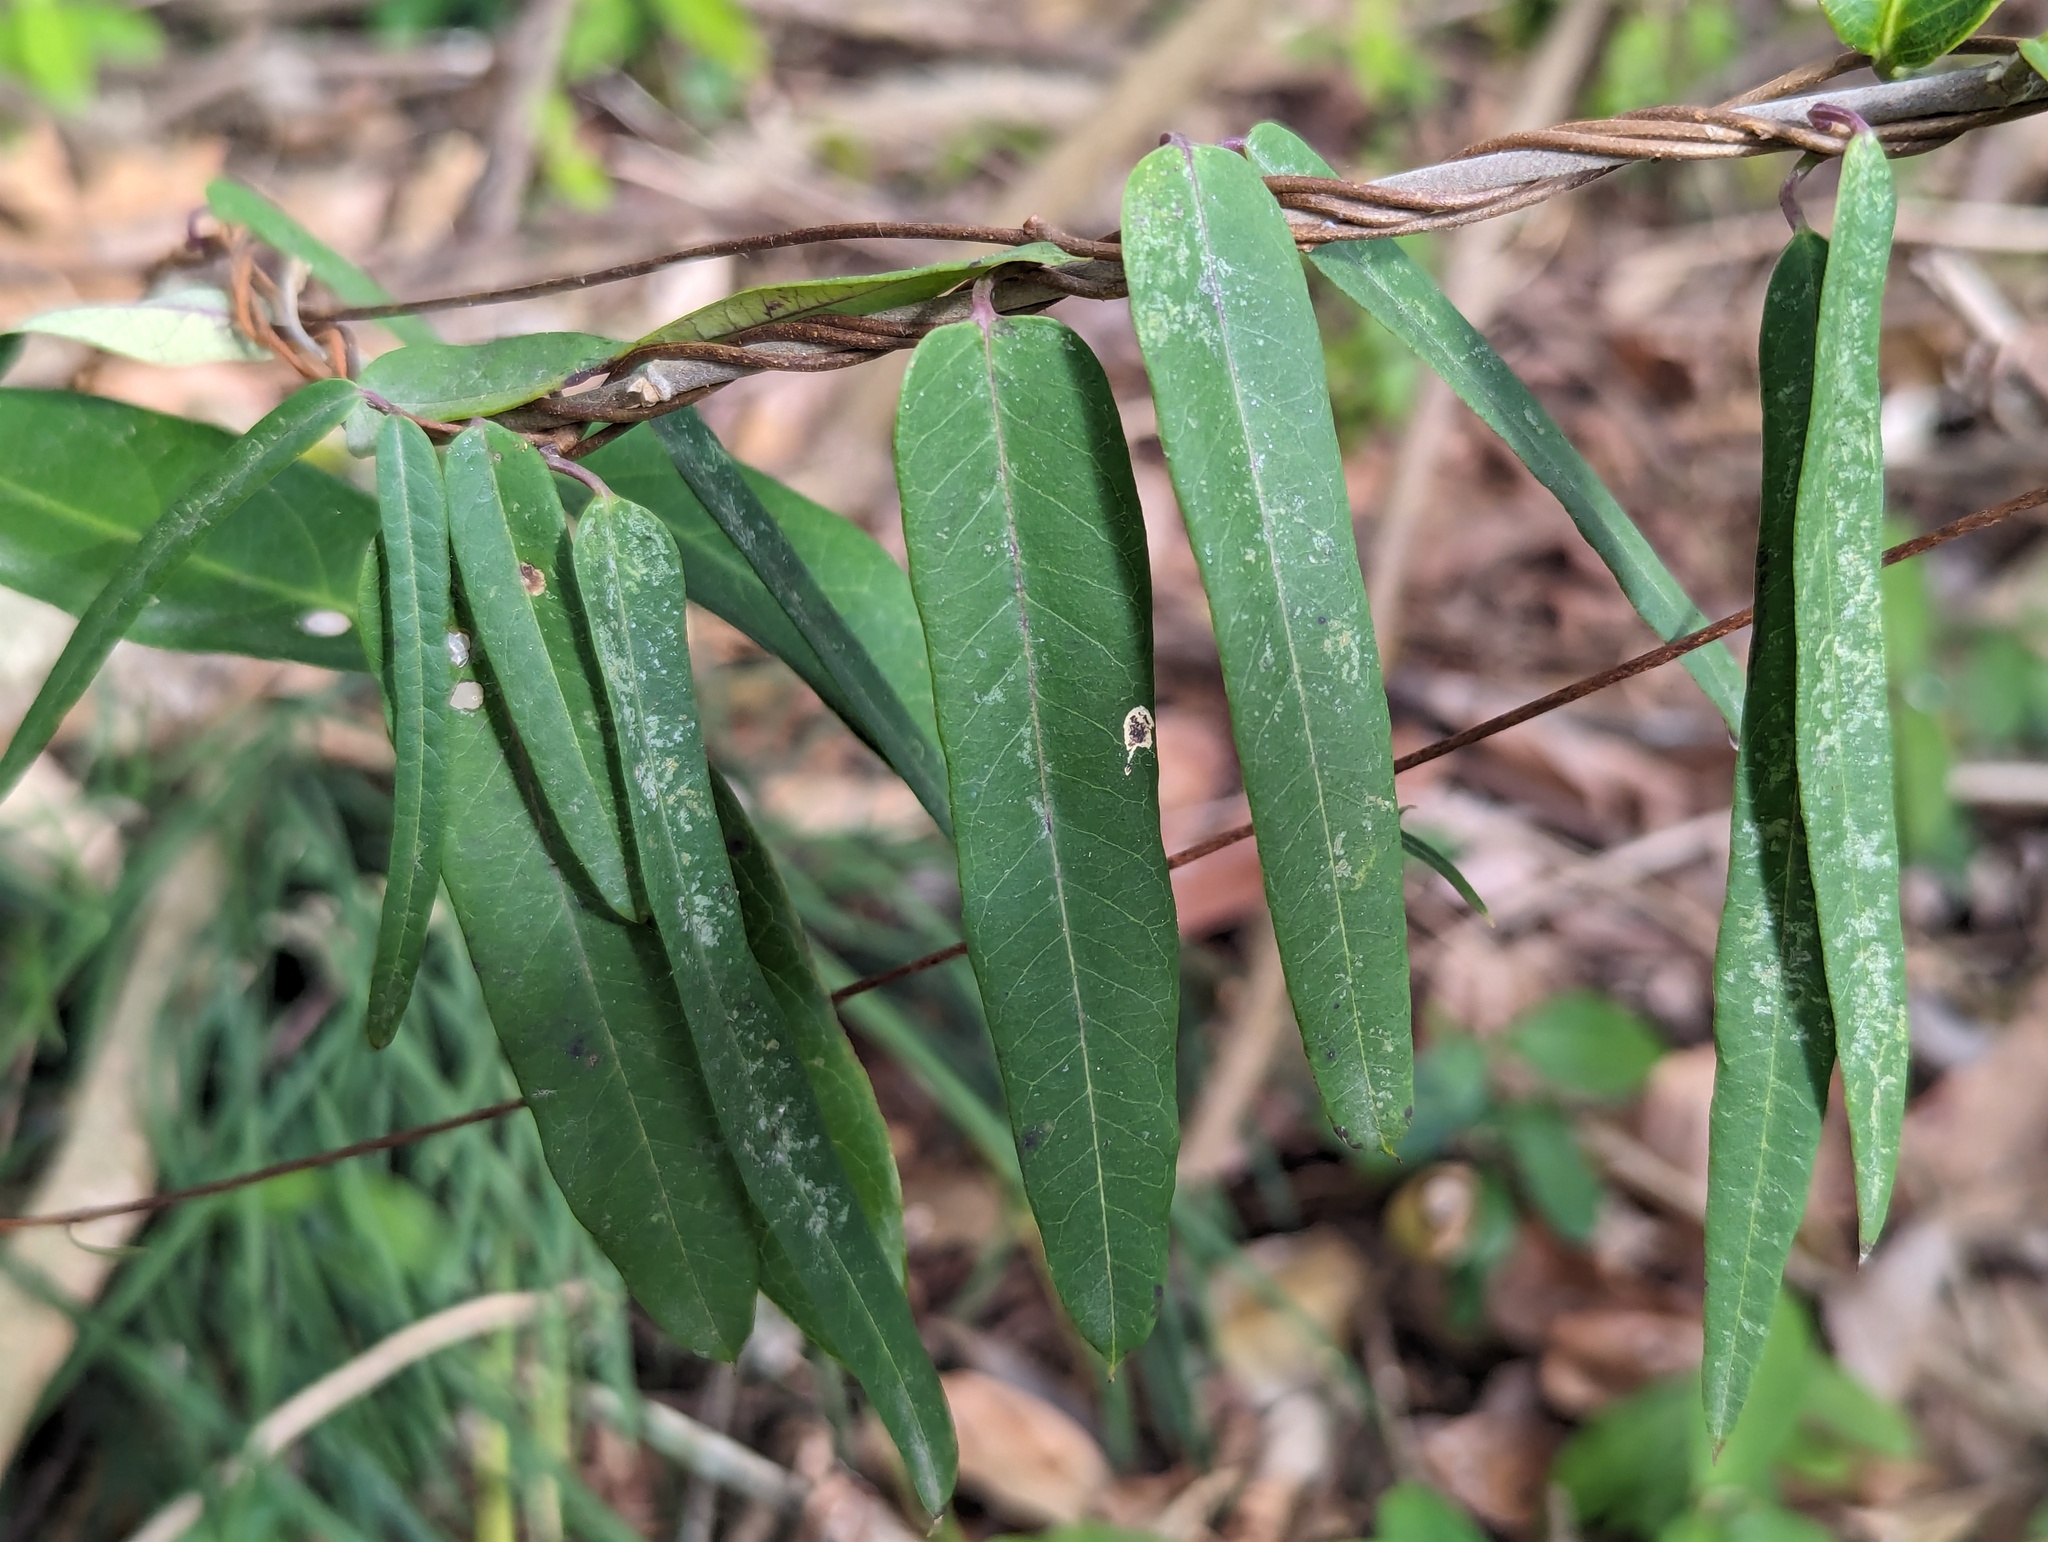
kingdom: Plantae
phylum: Tracheophyta
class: Magnoliopsida
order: Gentianales
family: Apocynaceae
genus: Cryptolepis
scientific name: Cryptolepis sinensis
